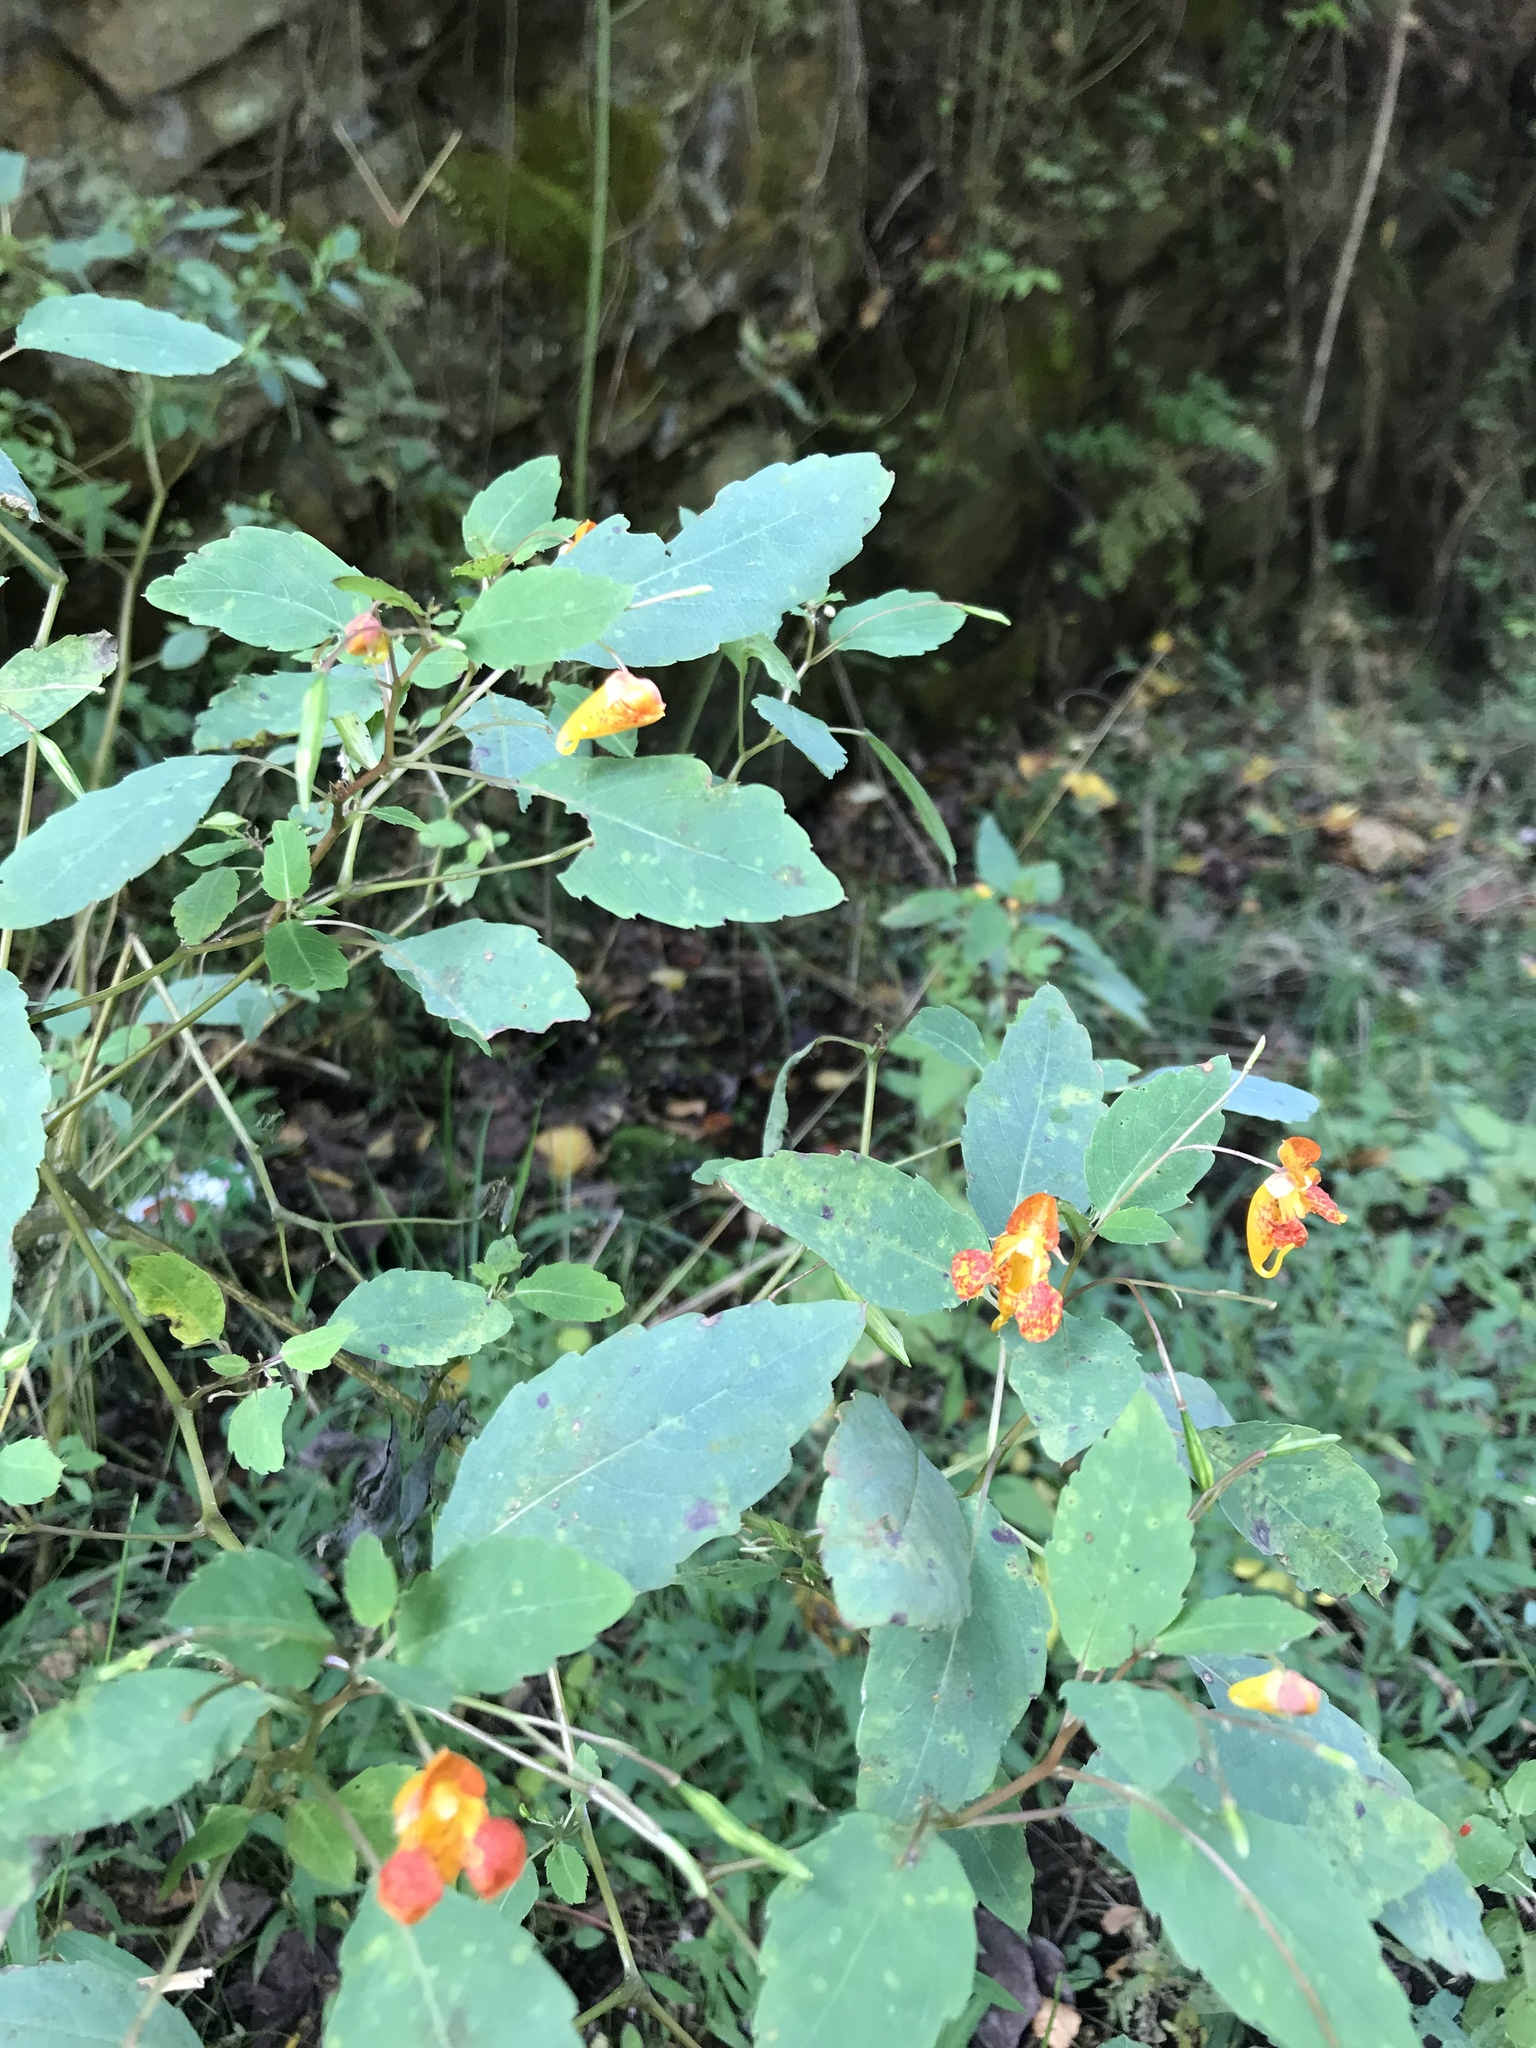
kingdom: Plantae
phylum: Tracheophyta
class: Magnoliopsida
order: Ericales
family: Balsaminaceae
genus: Impatiens
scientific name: Impatiens capensis
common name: Orange balsam
